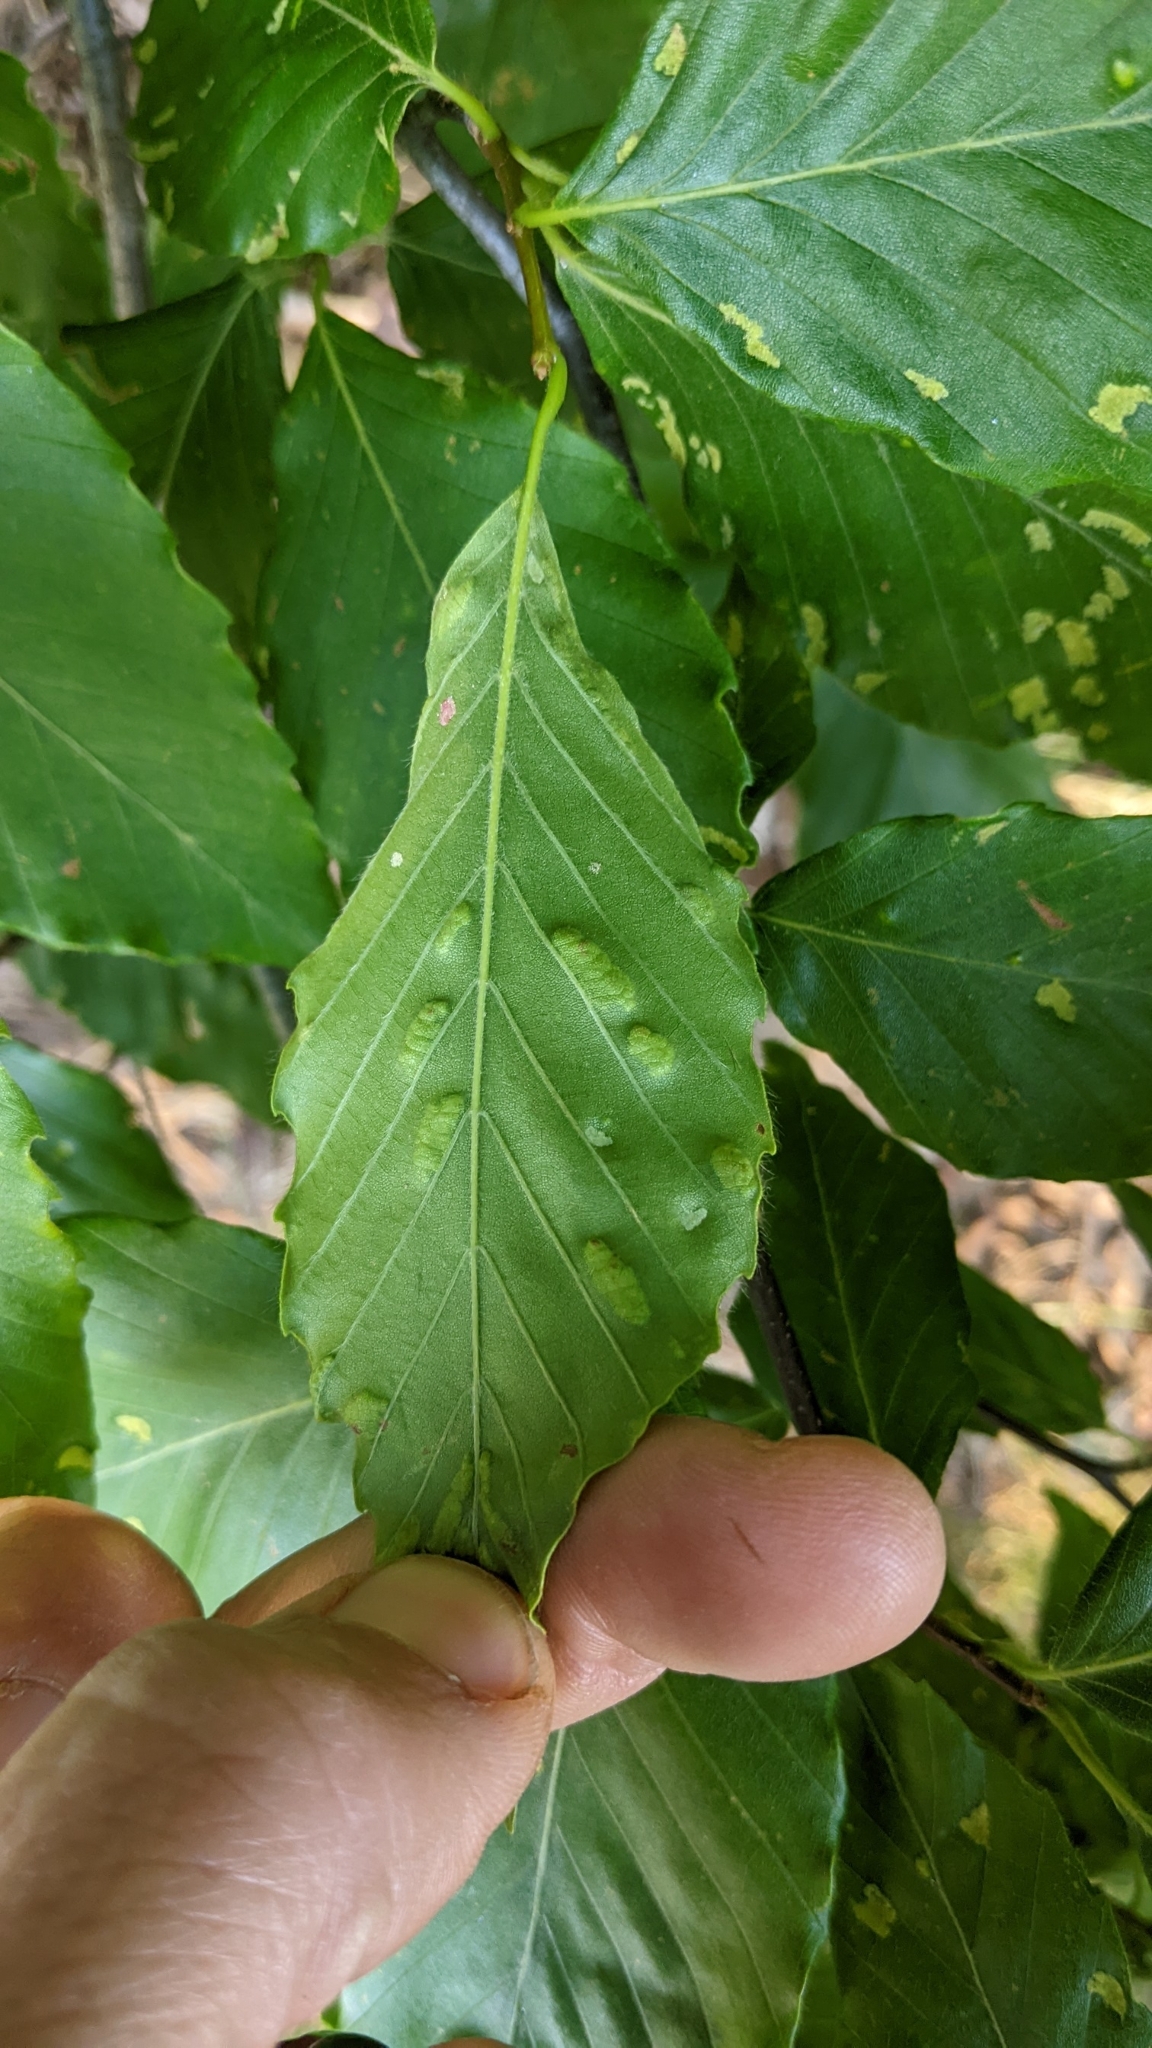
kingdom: Animalia
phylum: Arthropoda
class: Arachnida
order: Trombidiformes
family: Eriophyidae
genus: Acalitus
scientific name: Acalitus
